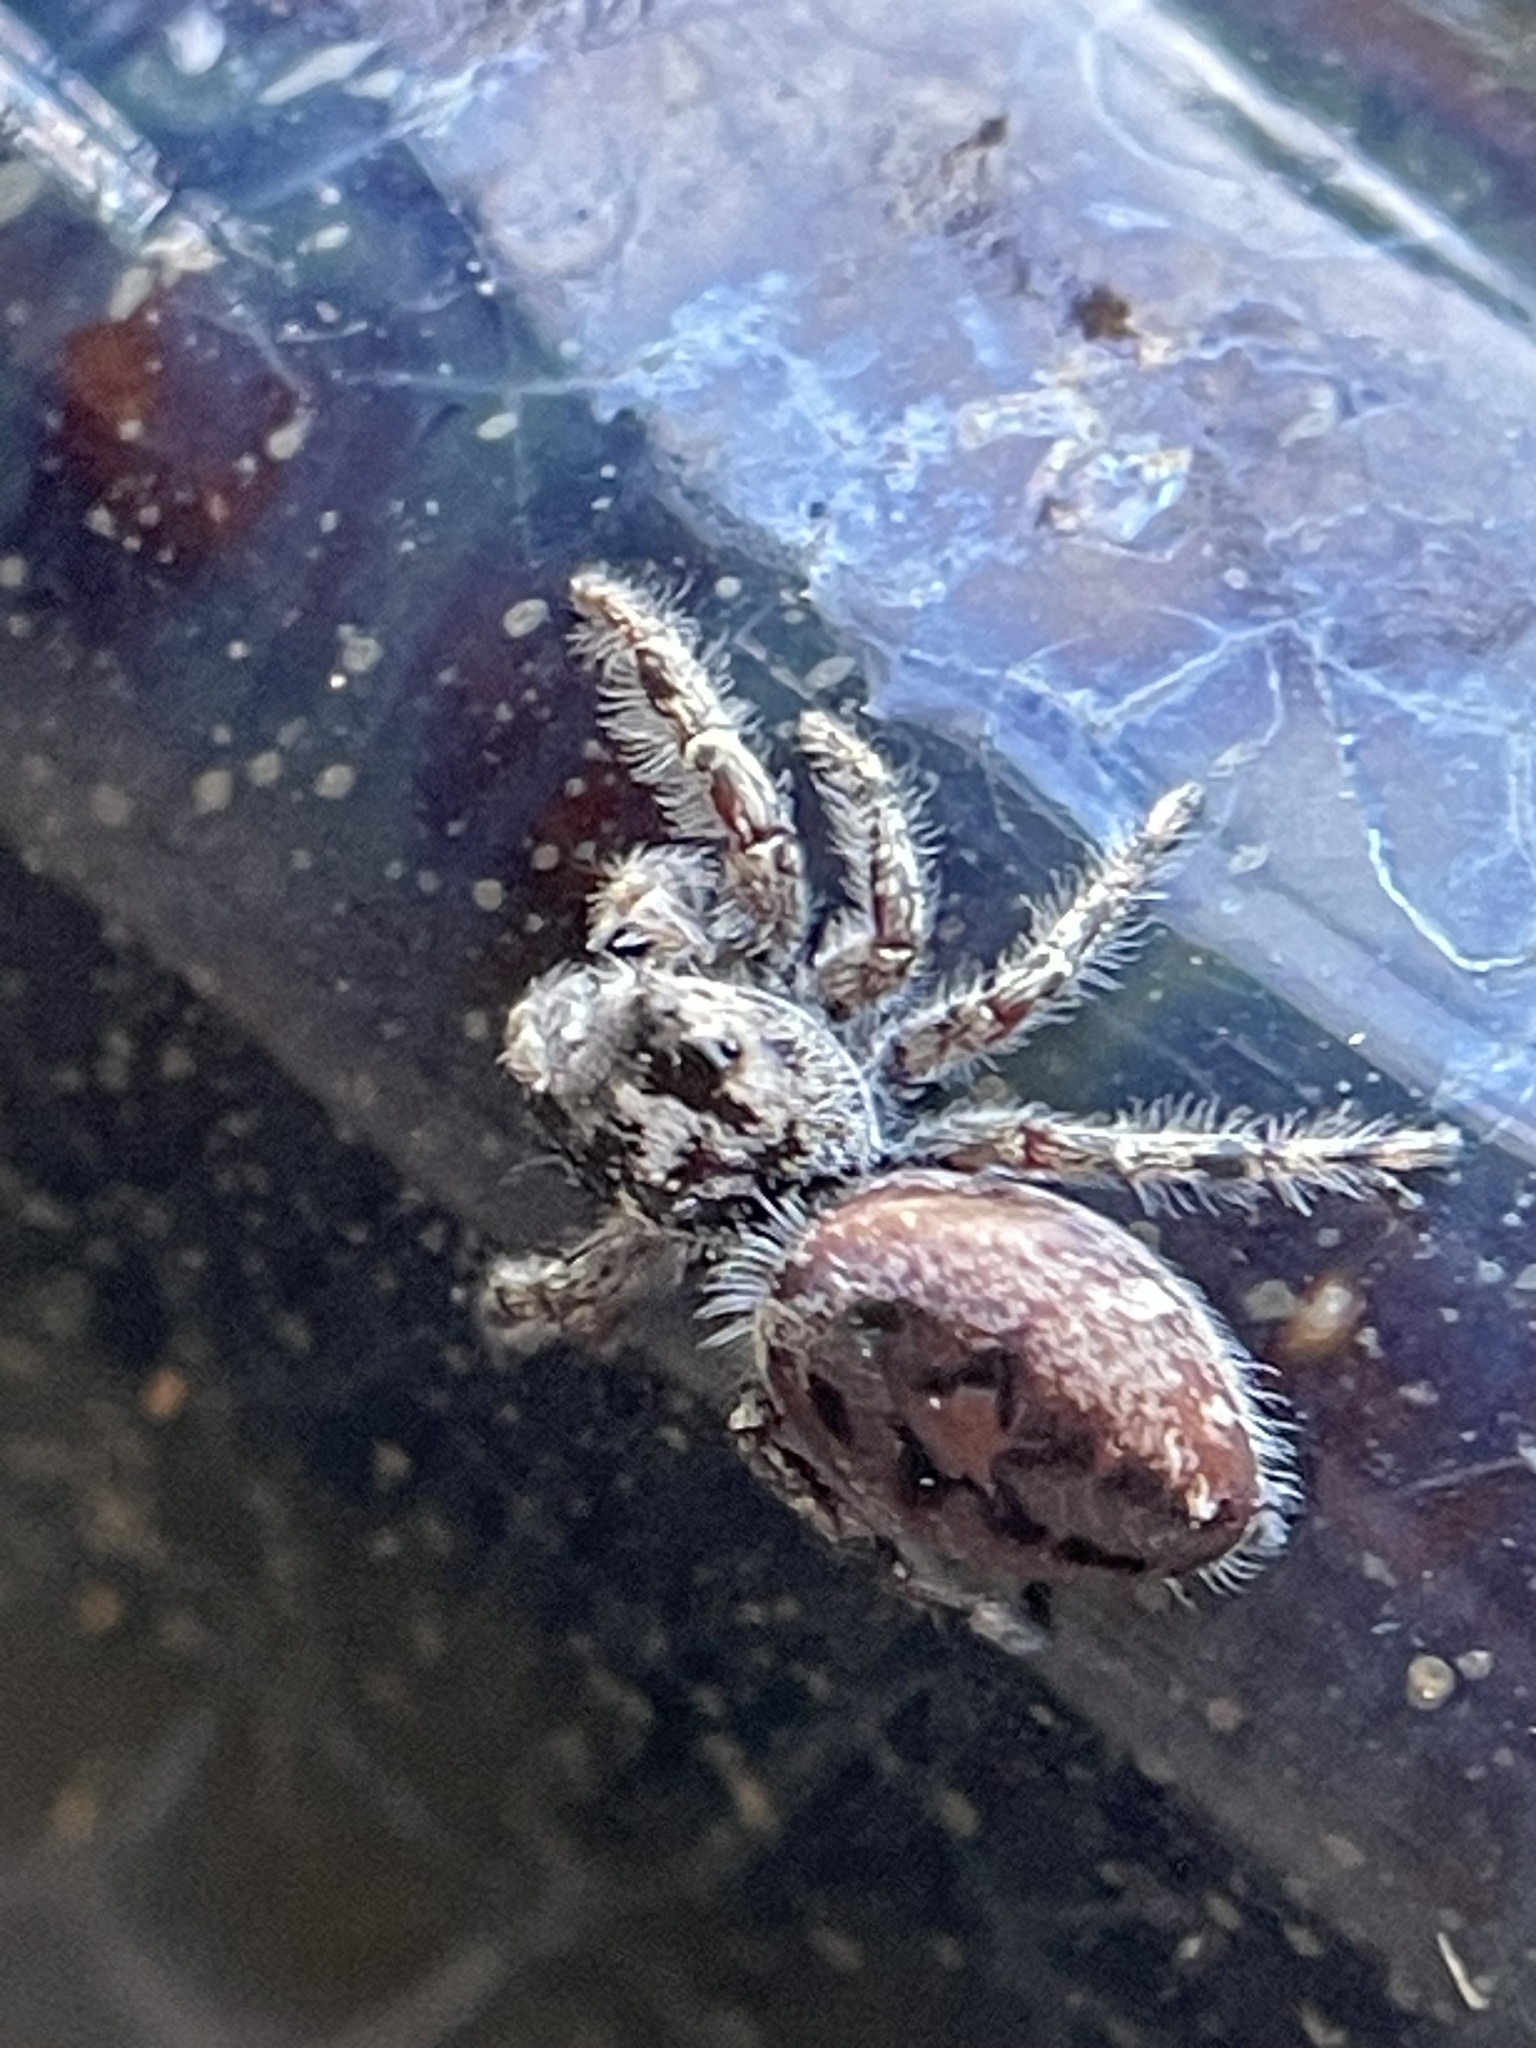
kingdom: Animalia
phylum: Arthropoda
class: Arachnida
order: Araneae
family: Salticidae
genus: Phidippus
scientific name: Phidippus putnami
